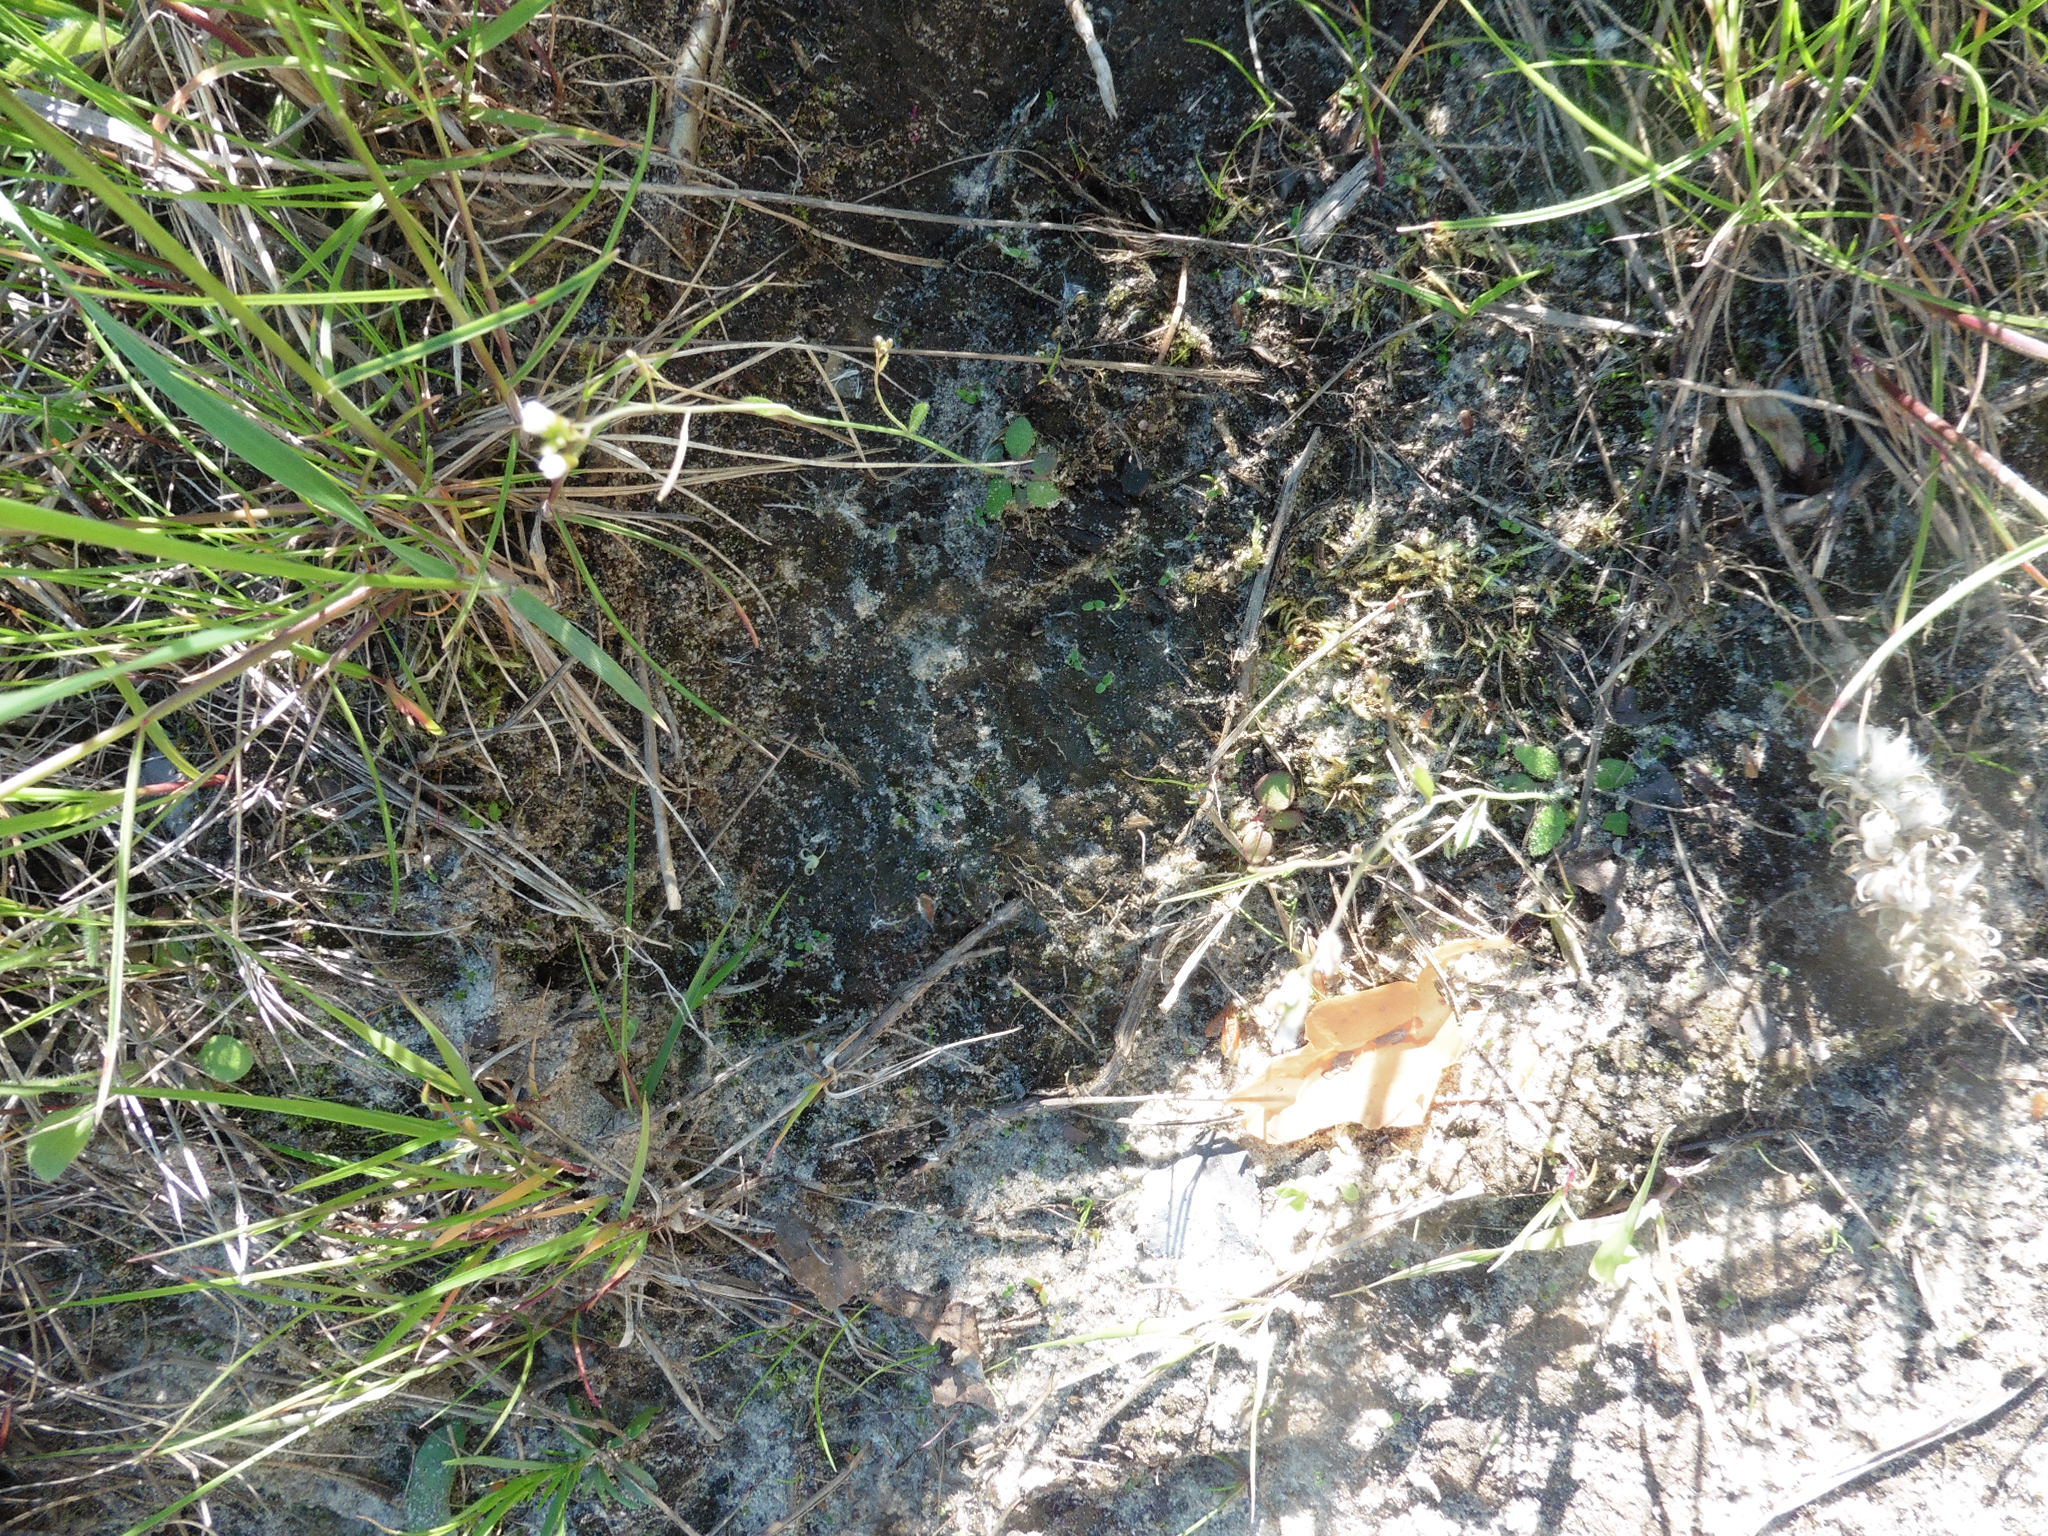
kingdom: Plantae
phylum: Tracheophyta
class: Magnoliopsida
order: Brassicales
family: Brassicaceae
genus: Arabidopsis
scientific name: Arabidopsis thaliana
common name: Thale cress
